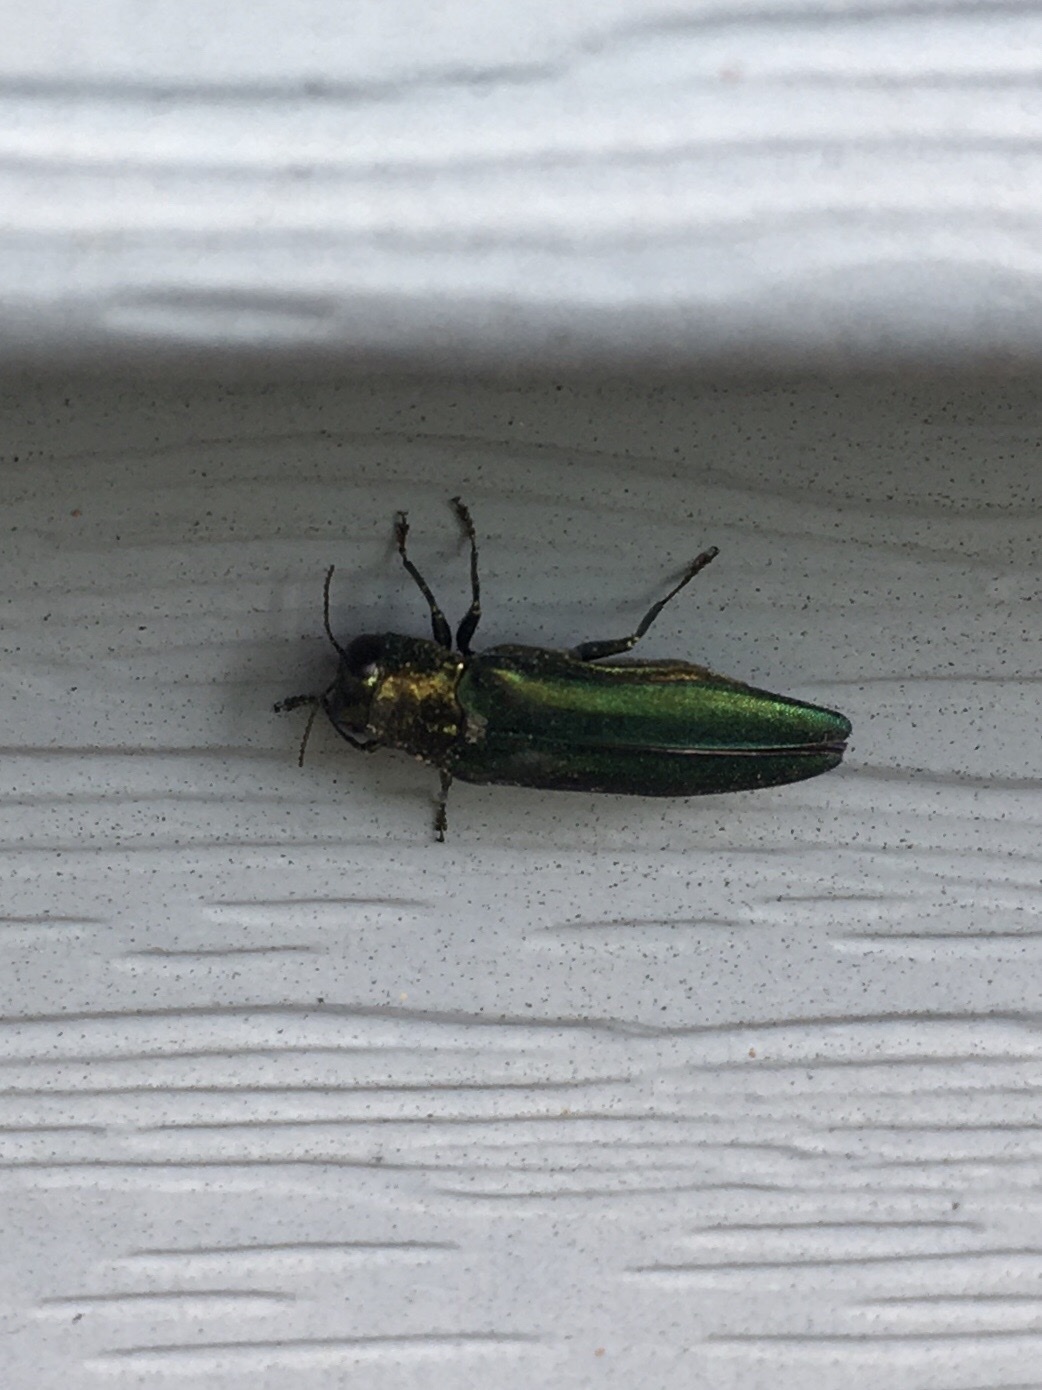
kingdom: Animalia
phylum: Arthropoda
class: Insecta
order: Coleoptera
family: Buprestidae
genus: Agrilus
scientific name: Agrilus planipennis
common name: Emerald ash borer
